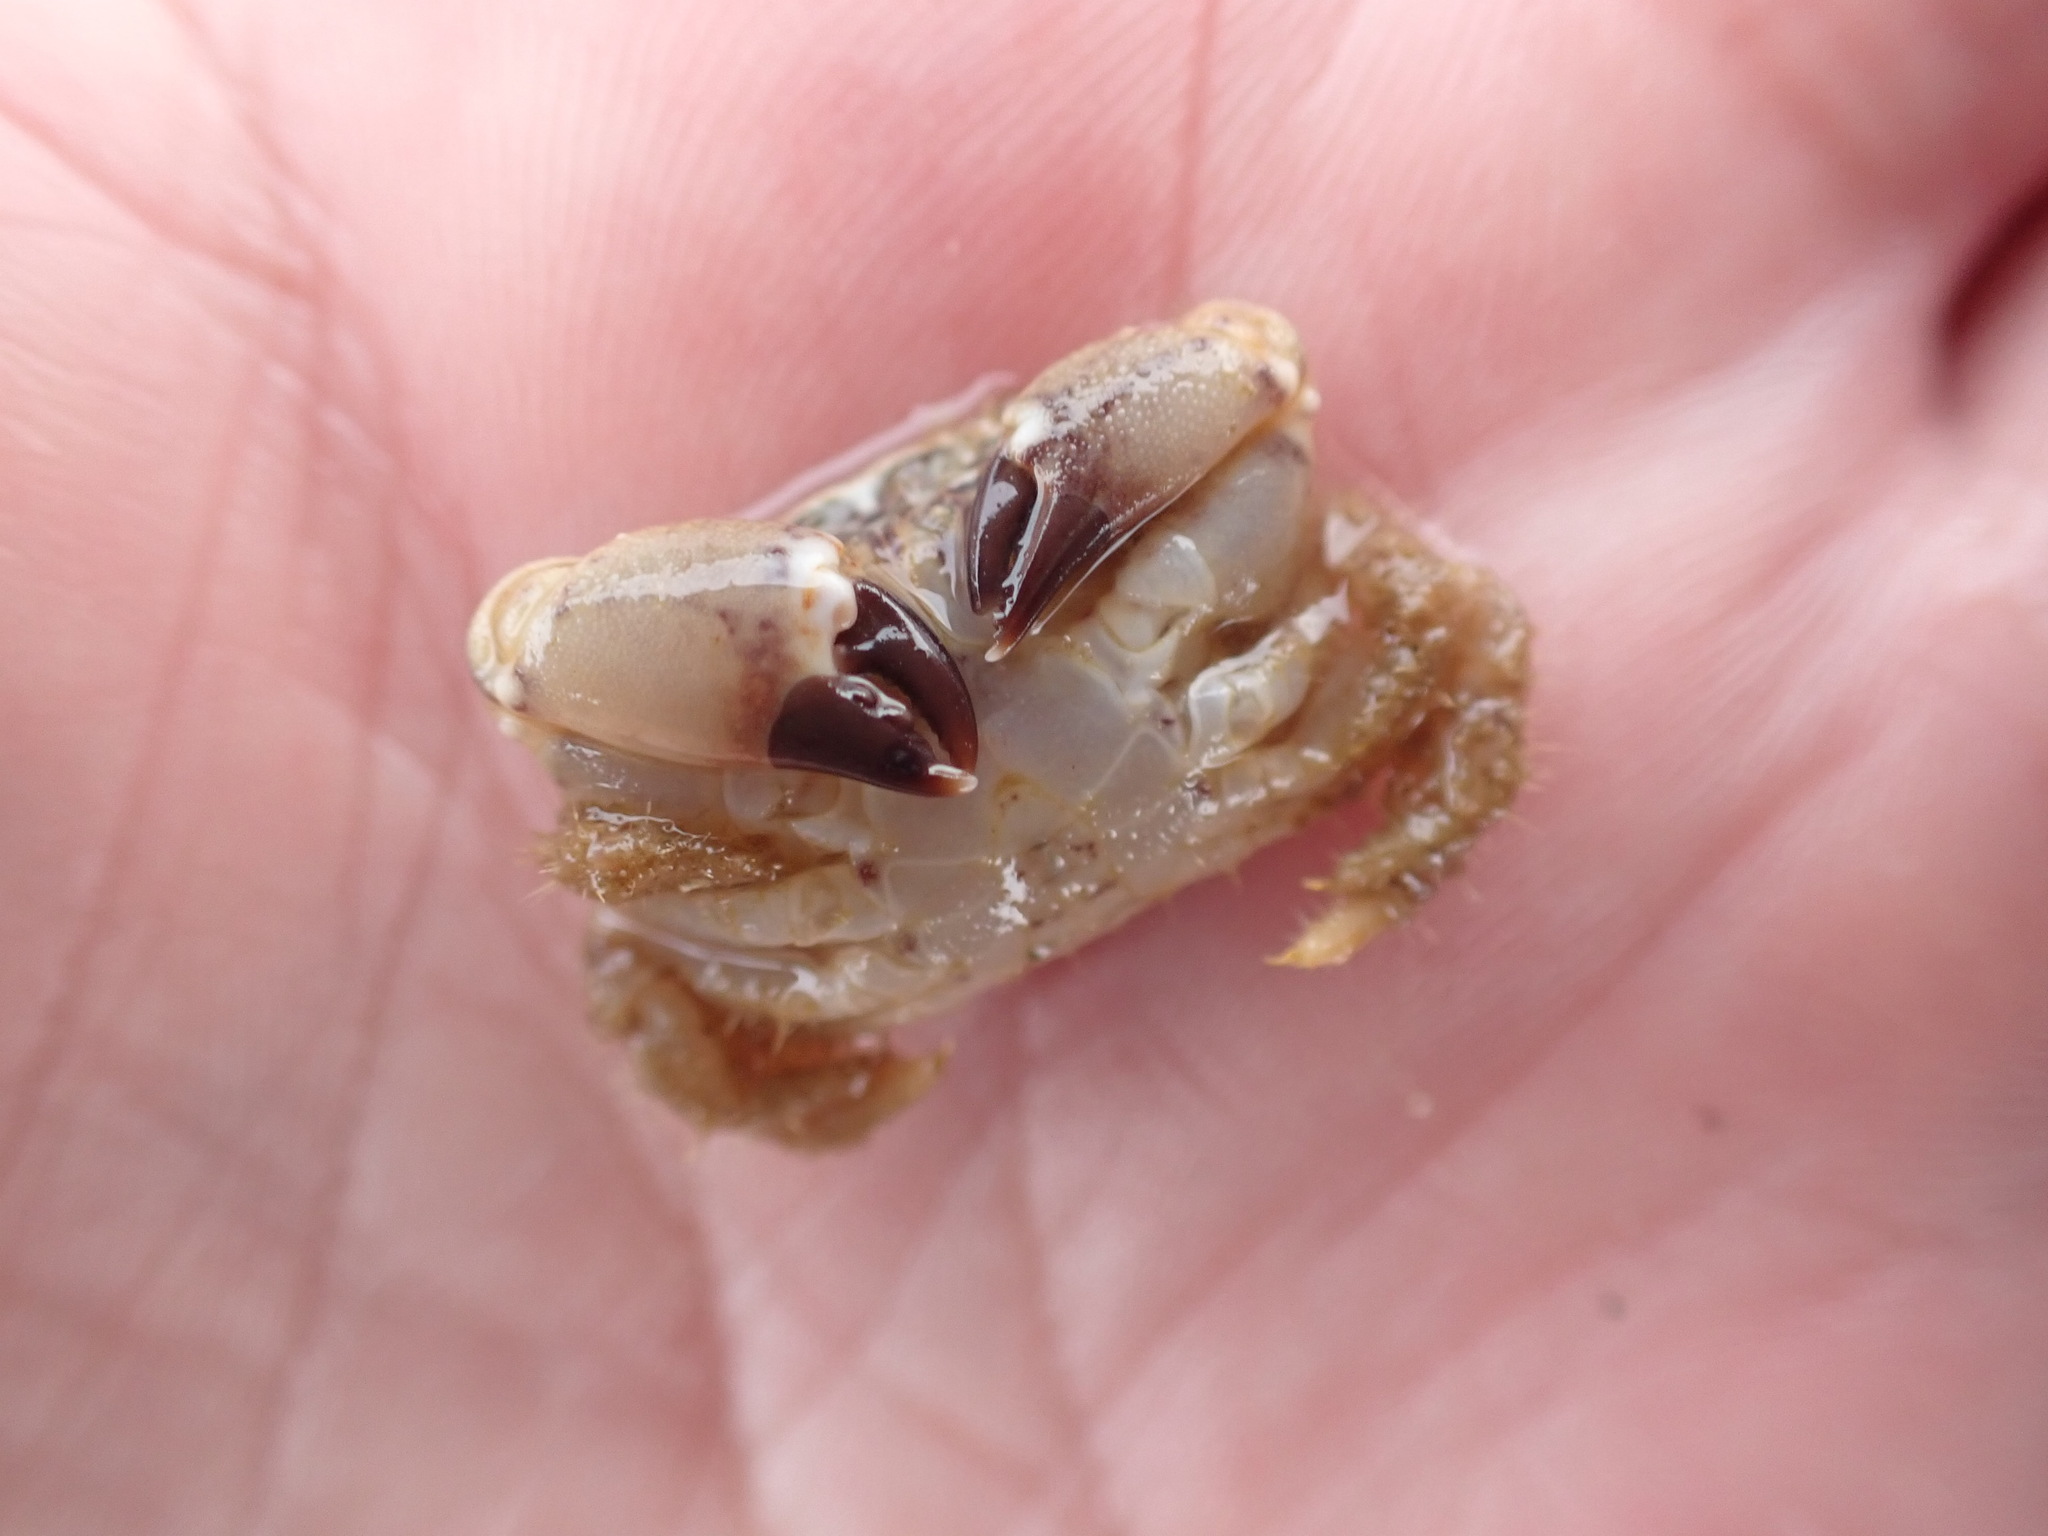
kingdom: Animalia
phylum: Arthropoda
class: Malacostraca
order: Decapoda
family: Oziidae
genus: Ozius
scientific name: Ozius deplanatus
